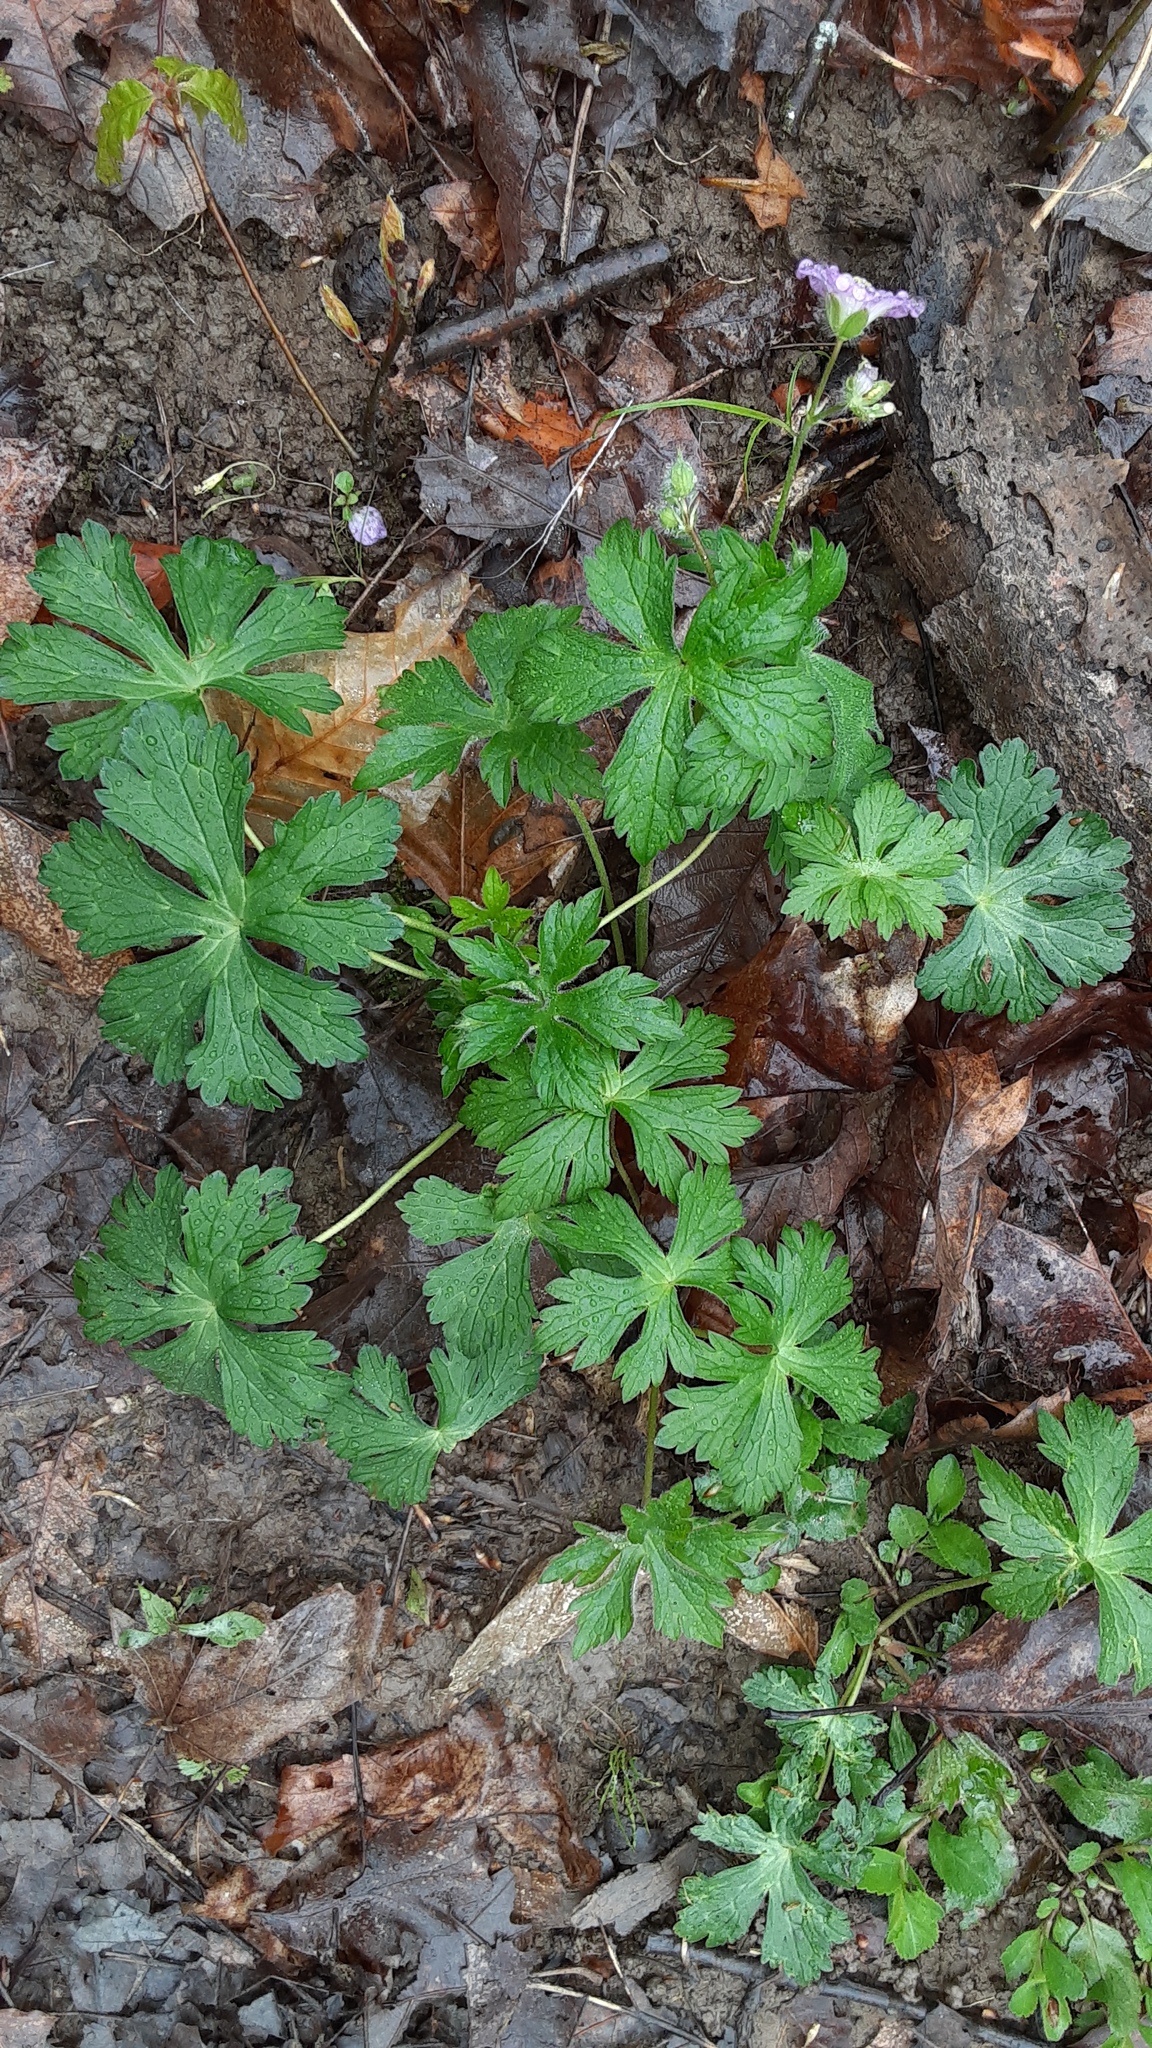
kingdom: Plantae
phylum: Tracheophyta
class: Magnoliopsida
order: Geraniales
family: Geraniaceae
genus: Geranium
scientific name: Geranium maculatum
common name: Spotted geranium
